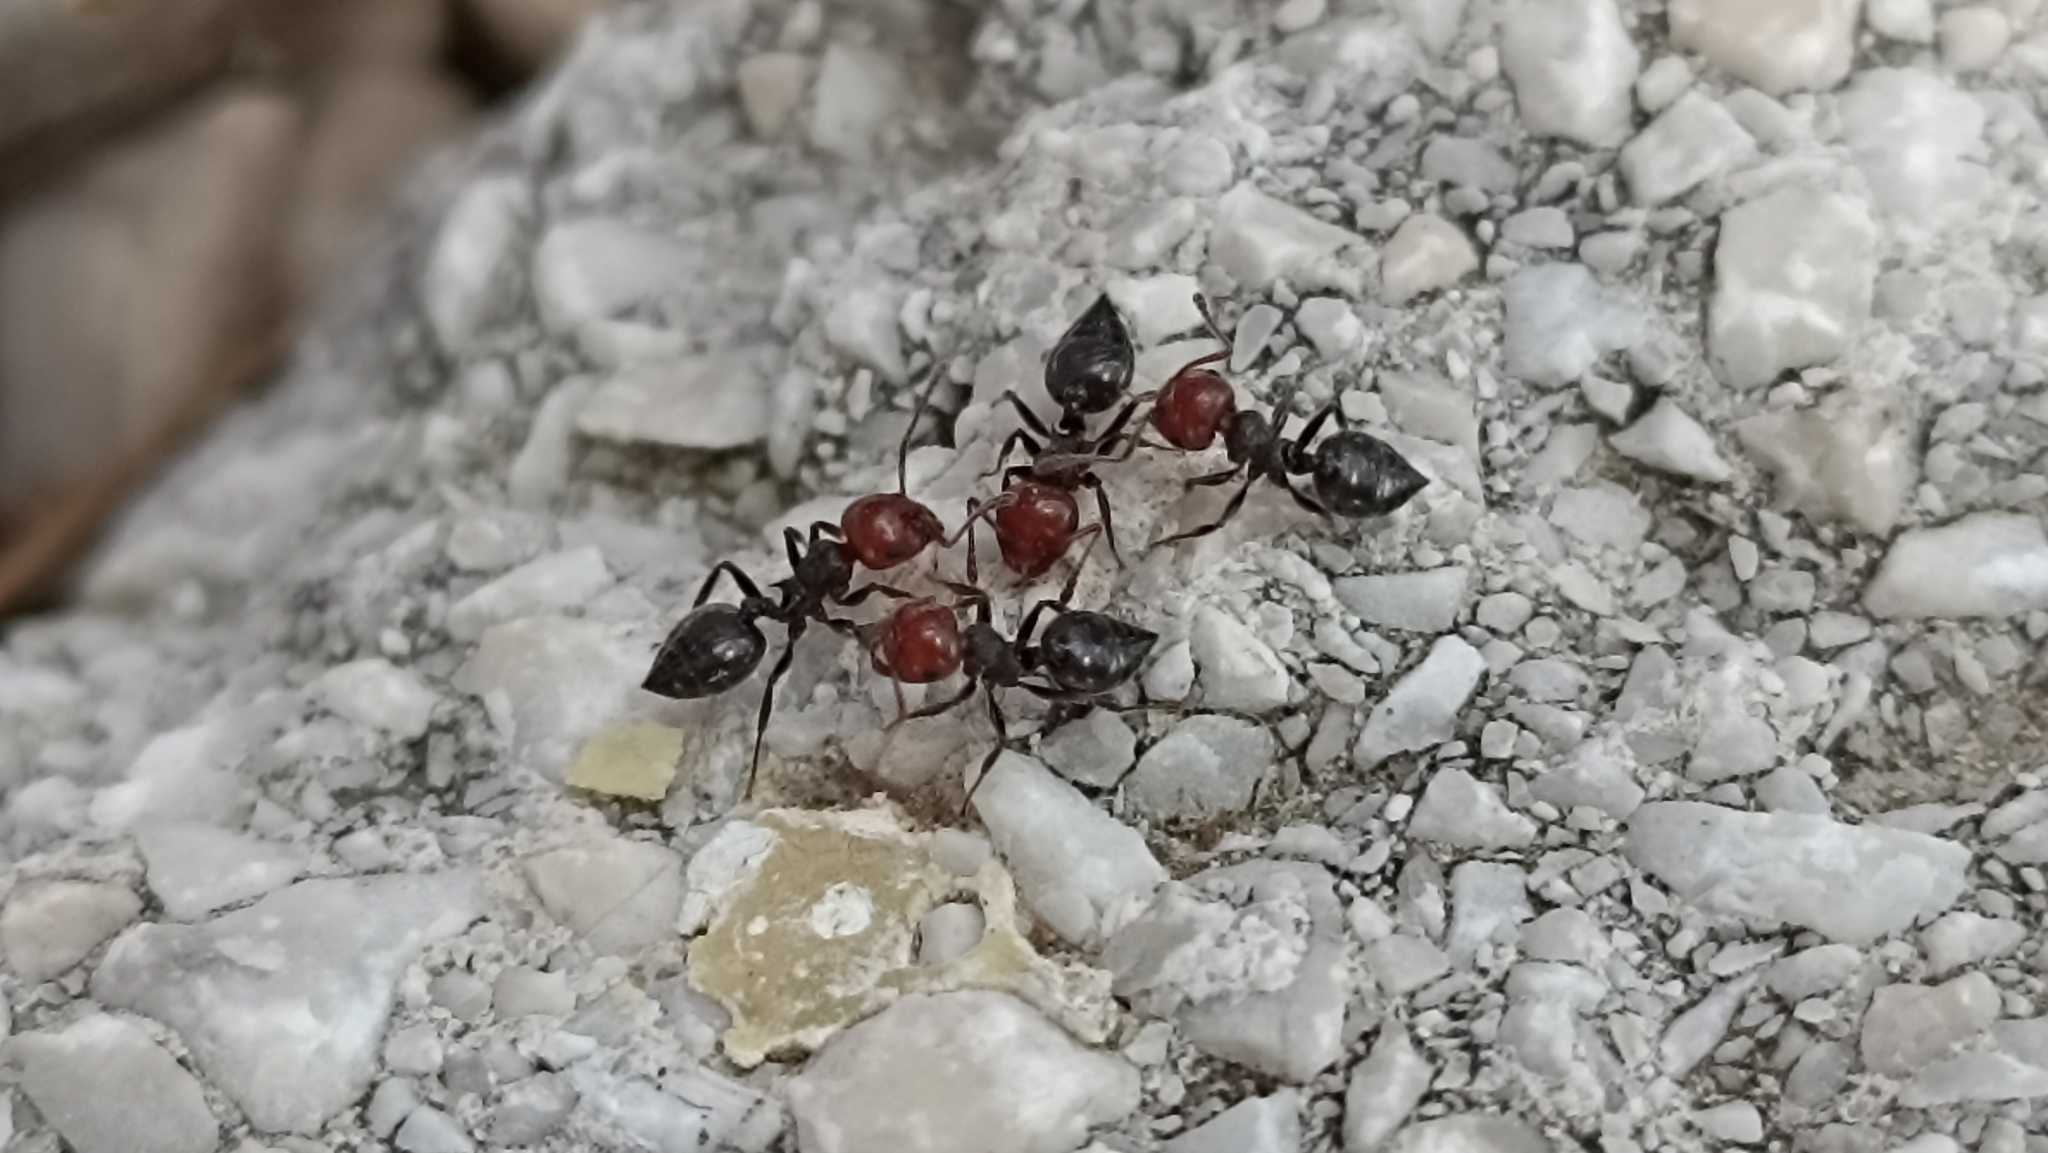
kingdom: Animalia
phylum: Arthropoda
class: Insecta
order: Hymenoptera
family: Formicidae
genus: Crematogaster
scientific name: Crematogaster scutellaris
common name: Fourmi du liège
